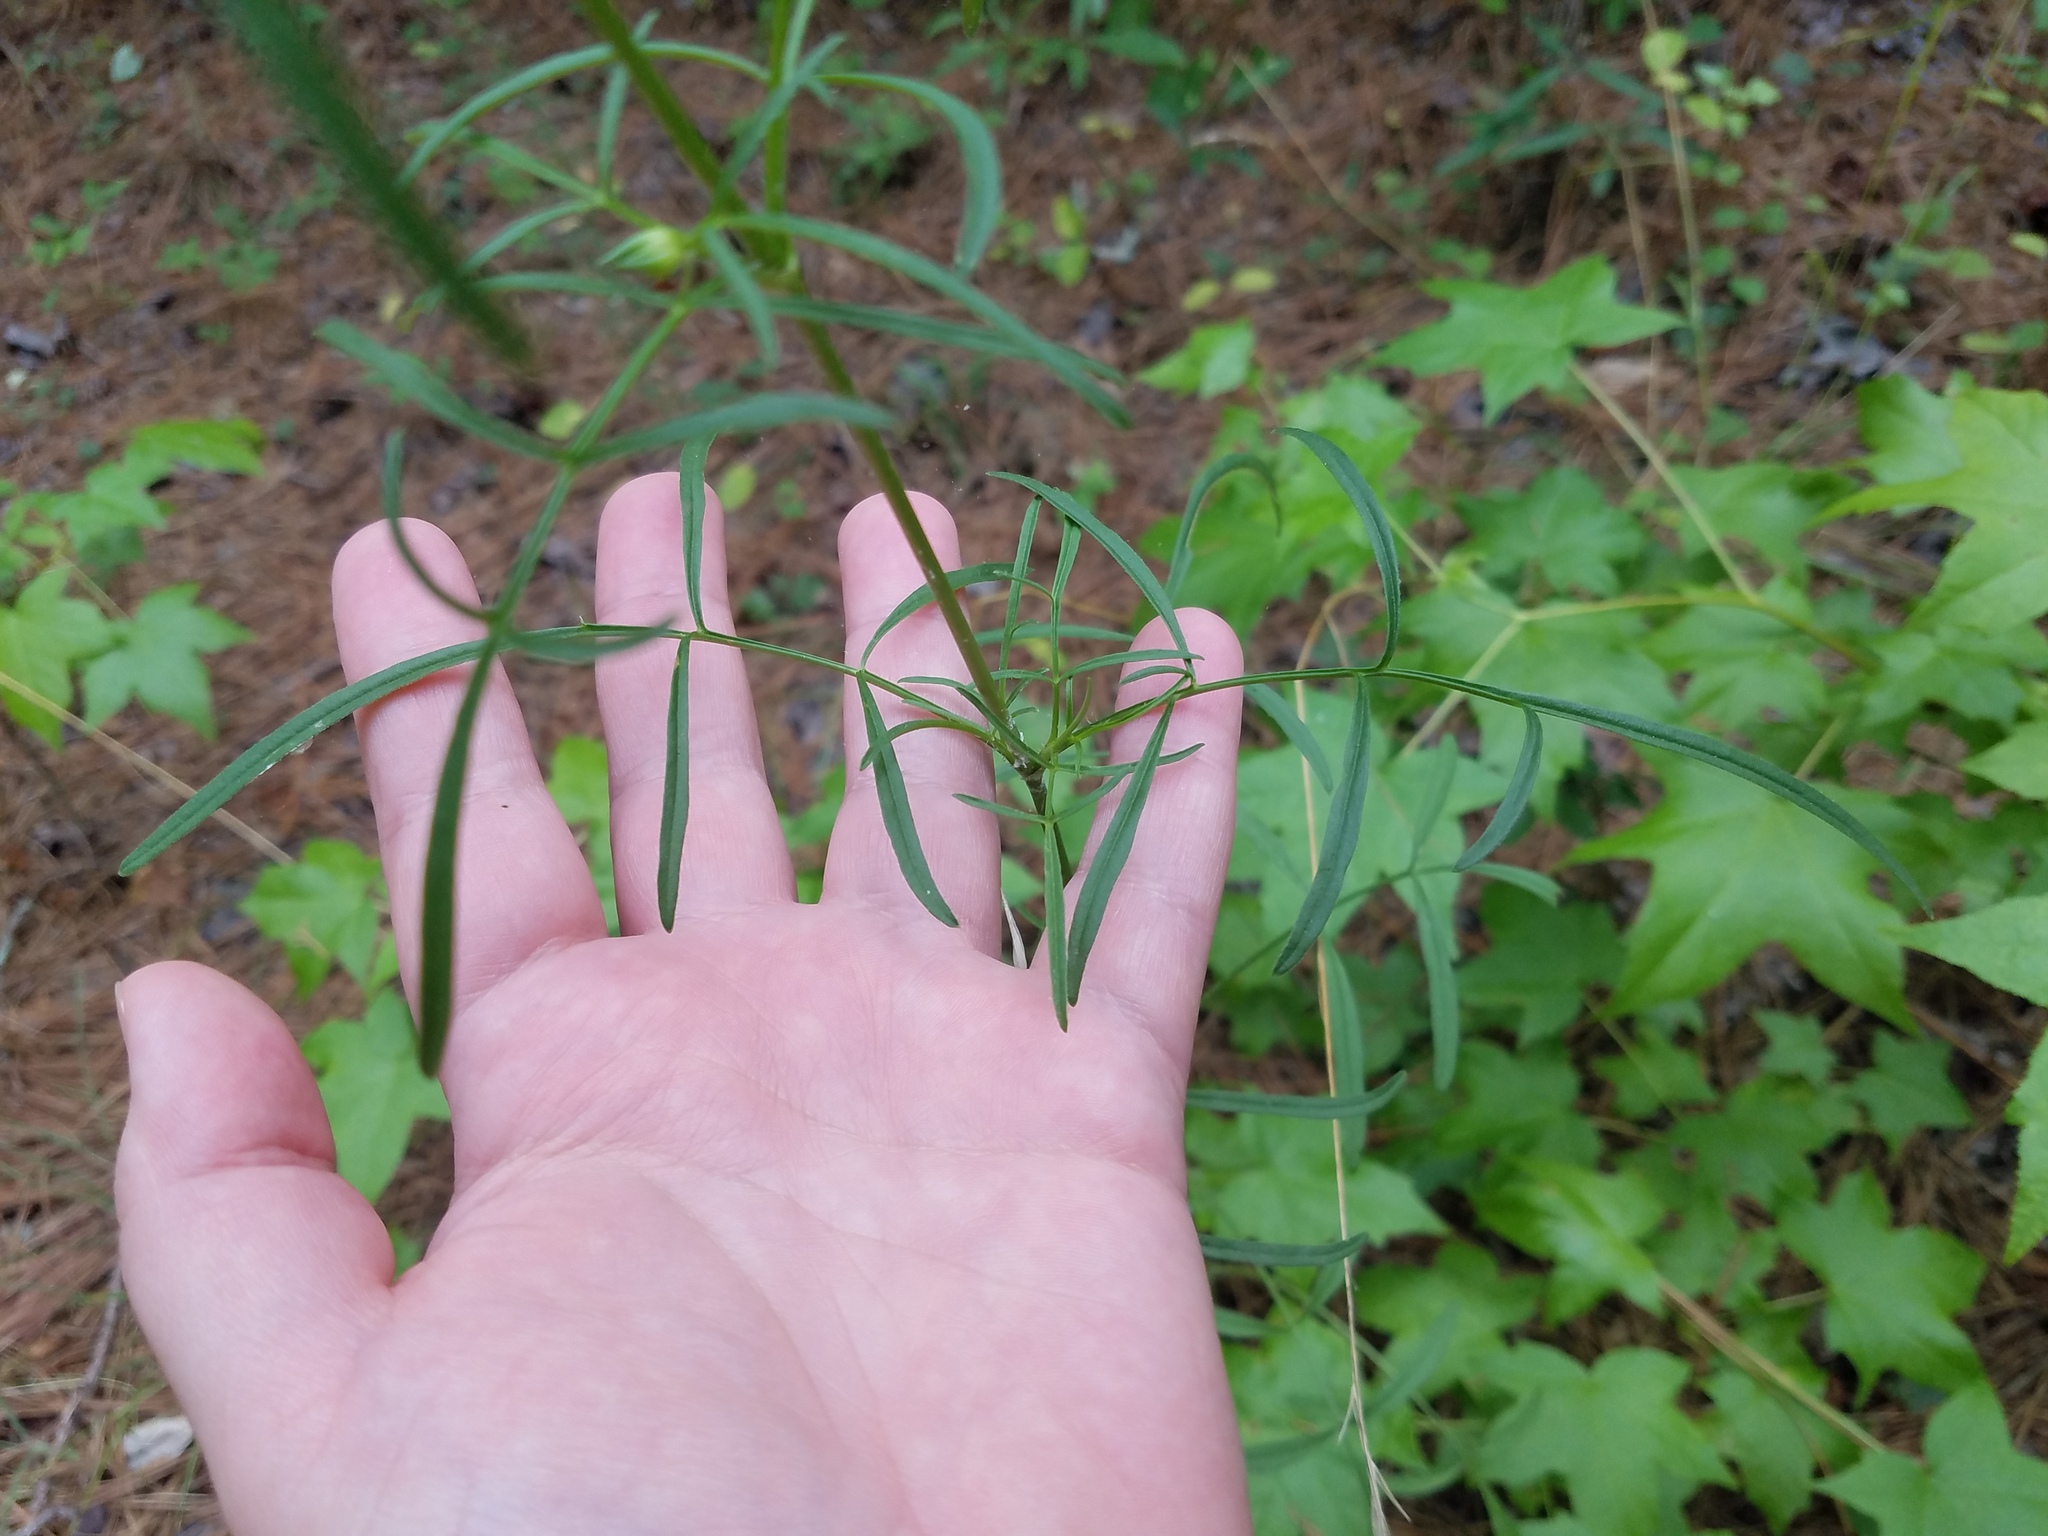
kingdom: Plantae
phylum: Tracheophyta
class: Magnoliopsida
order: Asterales
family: Asteraceae
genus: Coreopsis
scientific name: Coreopsis lanceolata
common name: Garden coreopsis
